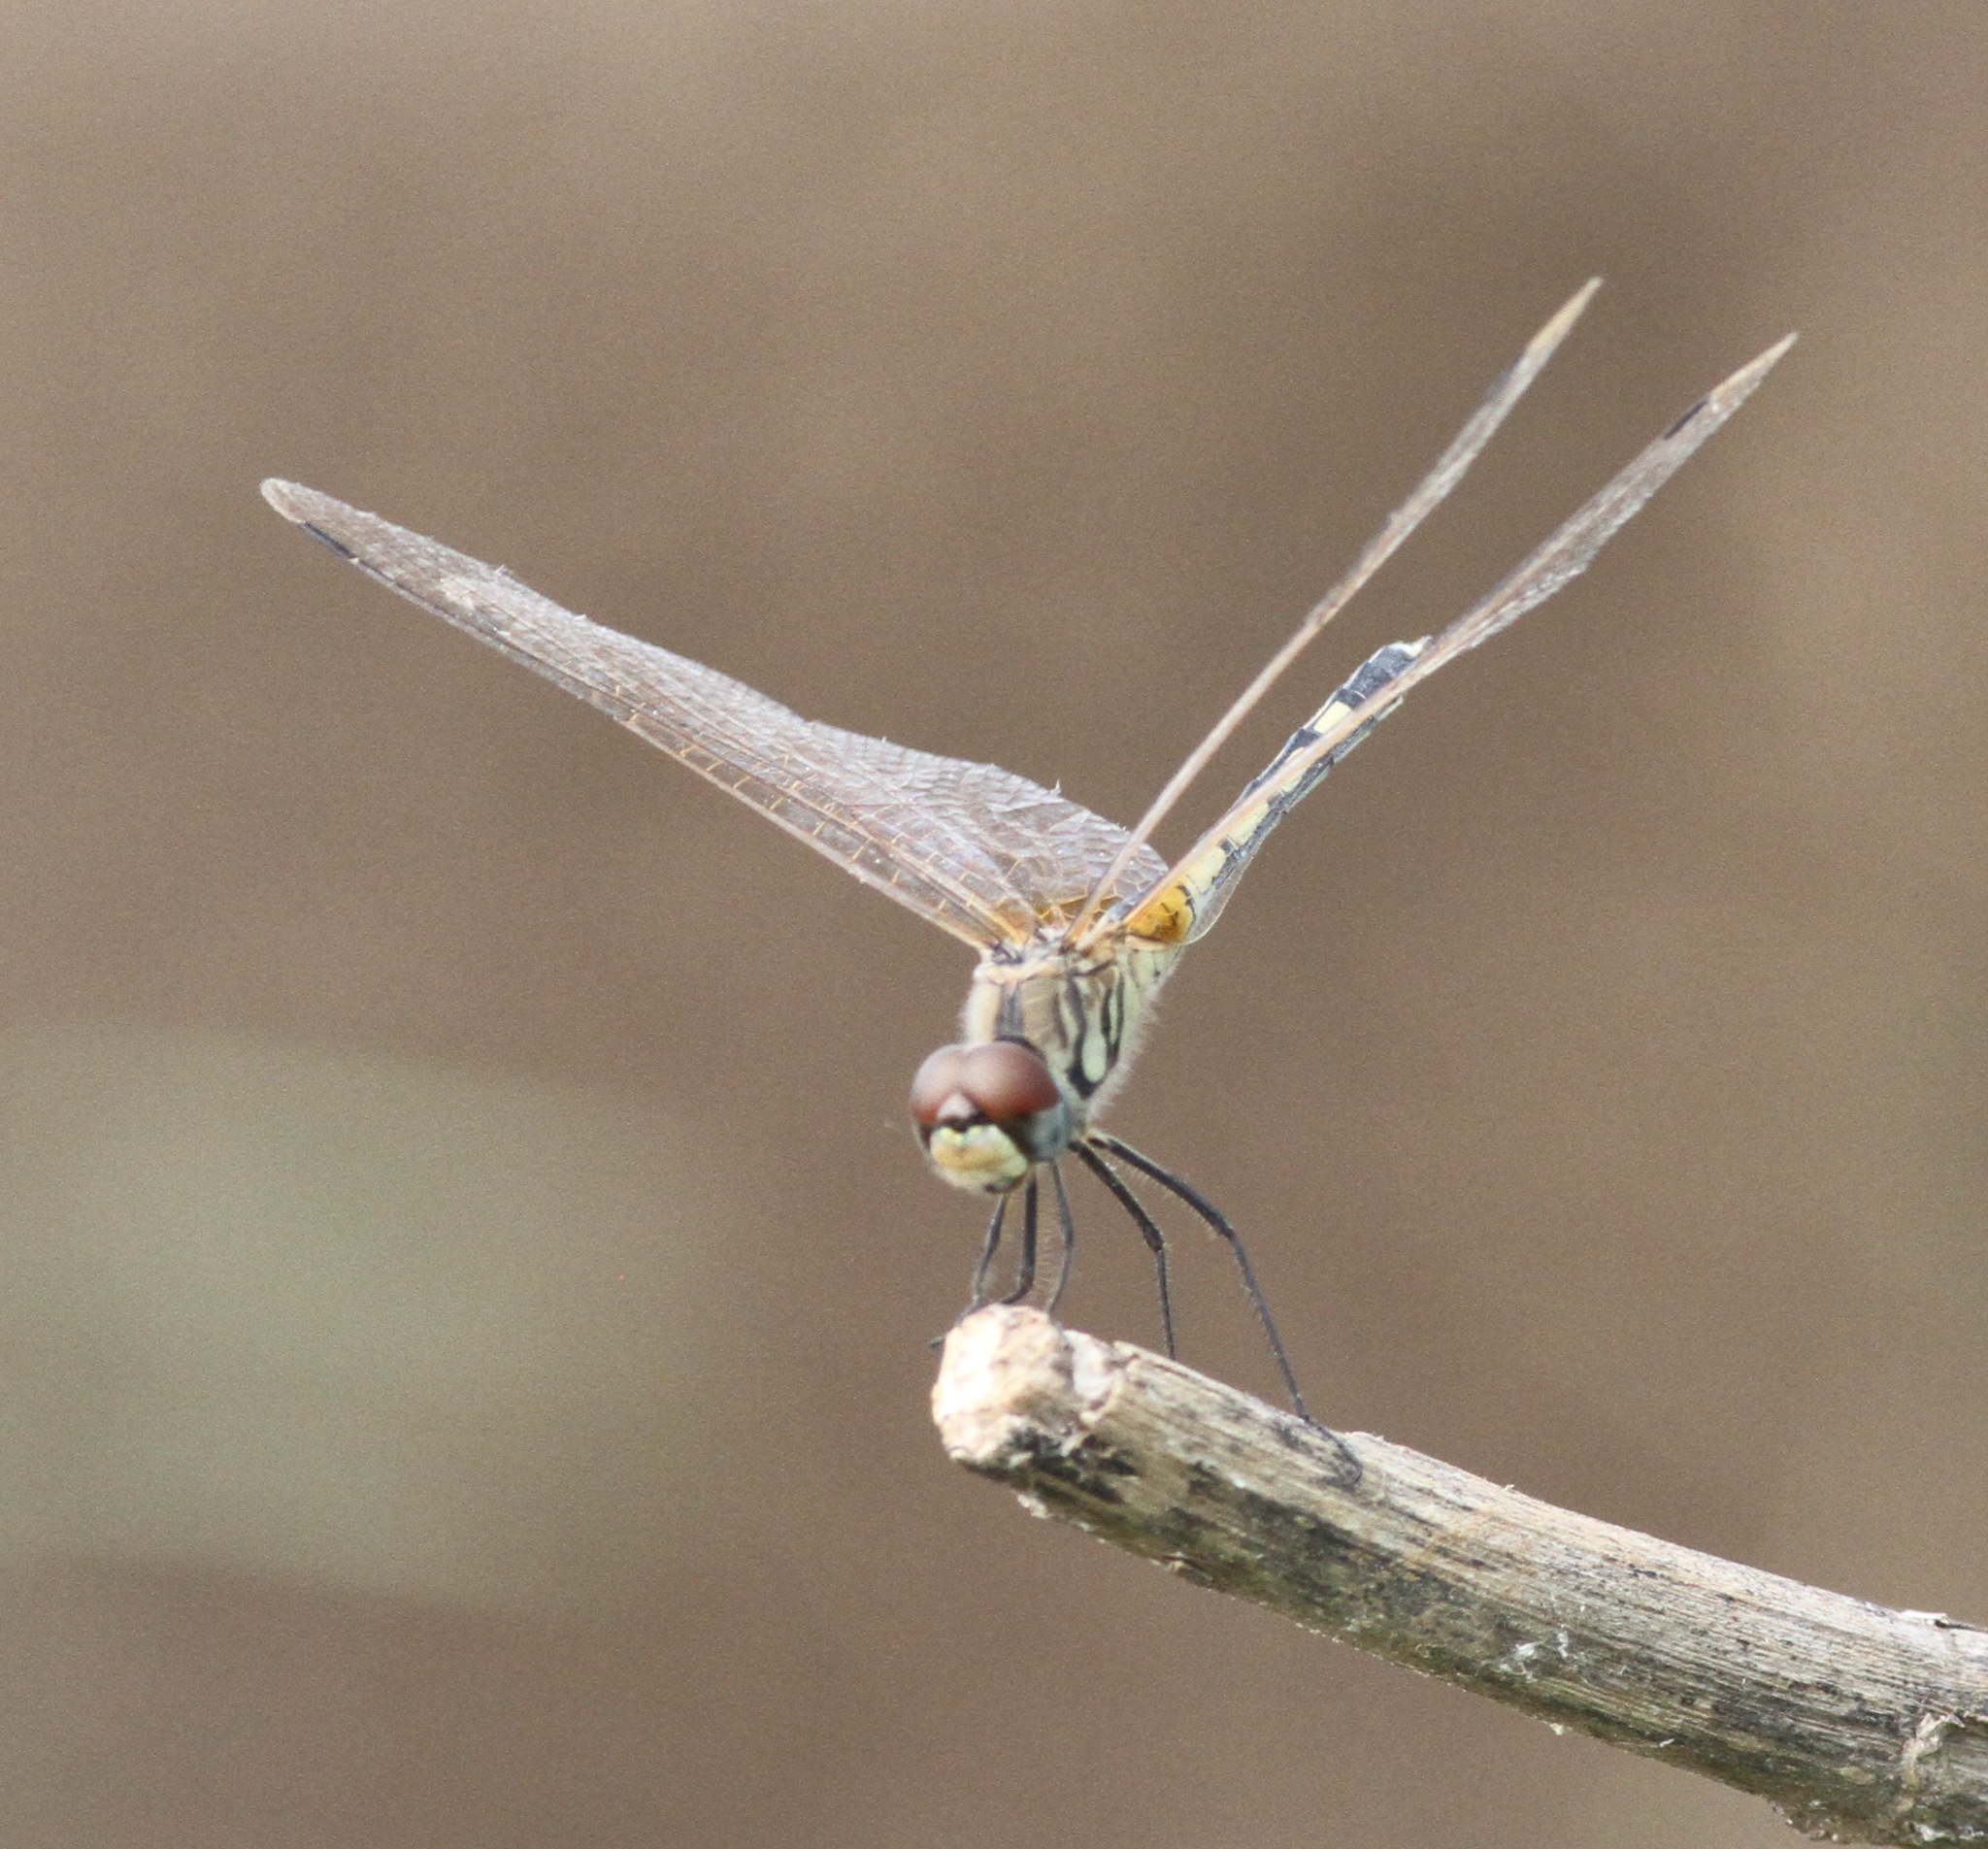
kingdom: Animalia
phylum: Arthropoda
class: Insecta
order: Odonata
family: Libellulidae
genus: Trithemis
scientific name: Trithemis pallidinervis
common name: Dancing dropwing
